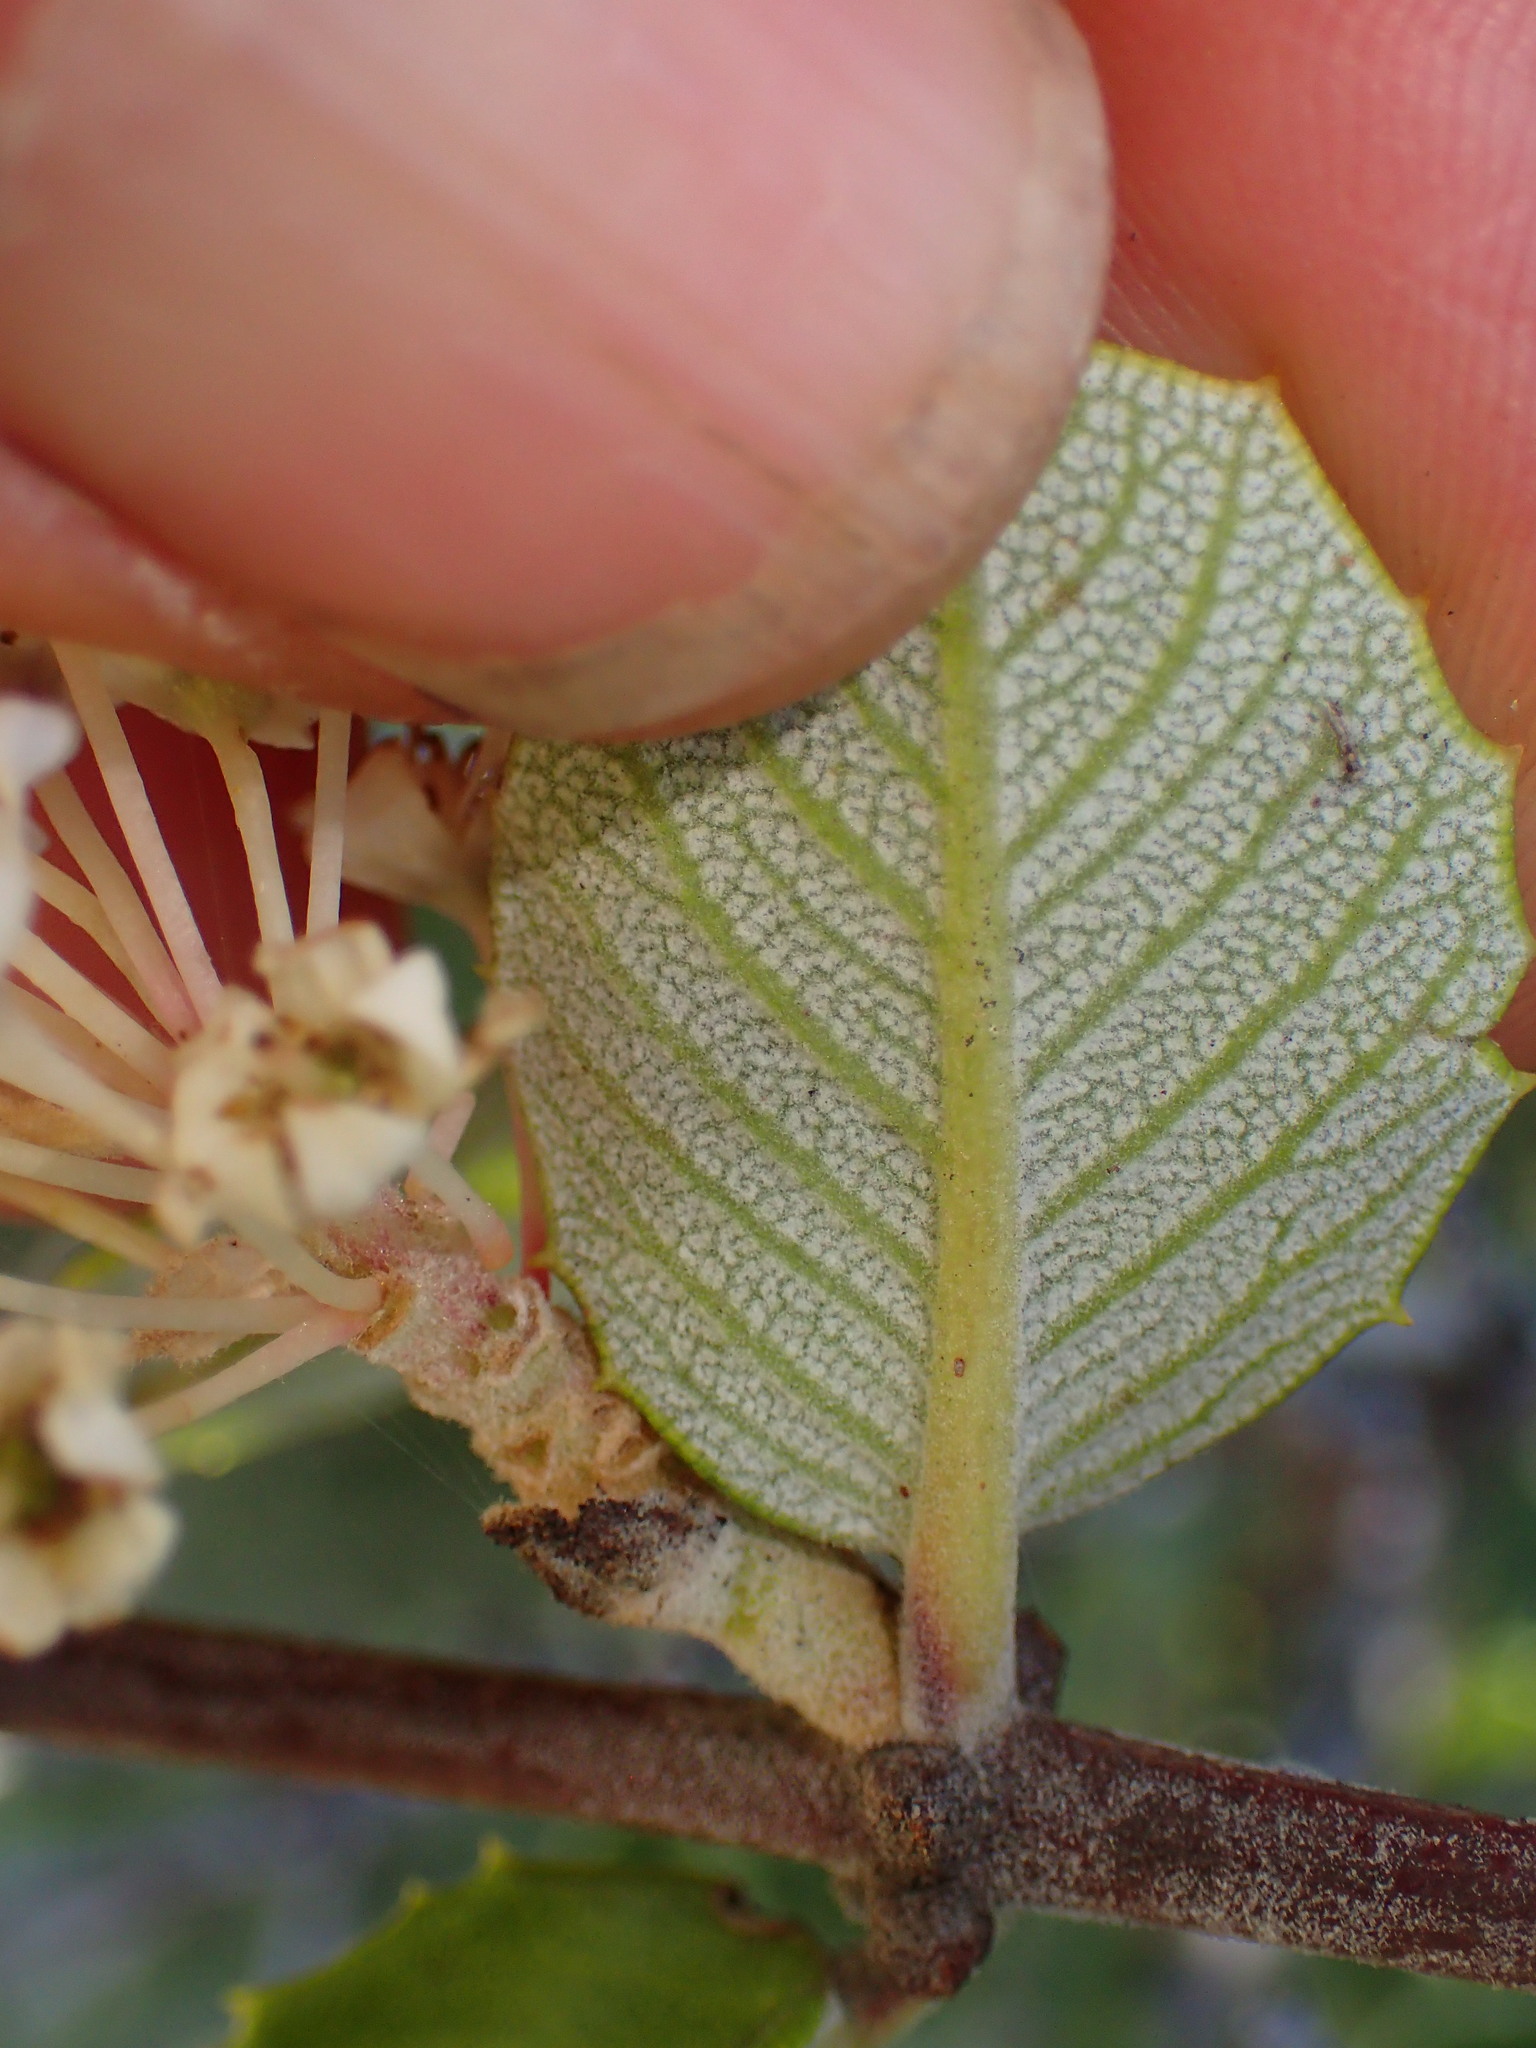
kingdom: Plantae
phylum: Tracheophyta
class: Magnoliopsida
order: Rosales
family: Rhamnaceae
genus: Ceanothus
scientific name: Ceanothus crassifolius
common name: Hoaryleaf ceanothus
